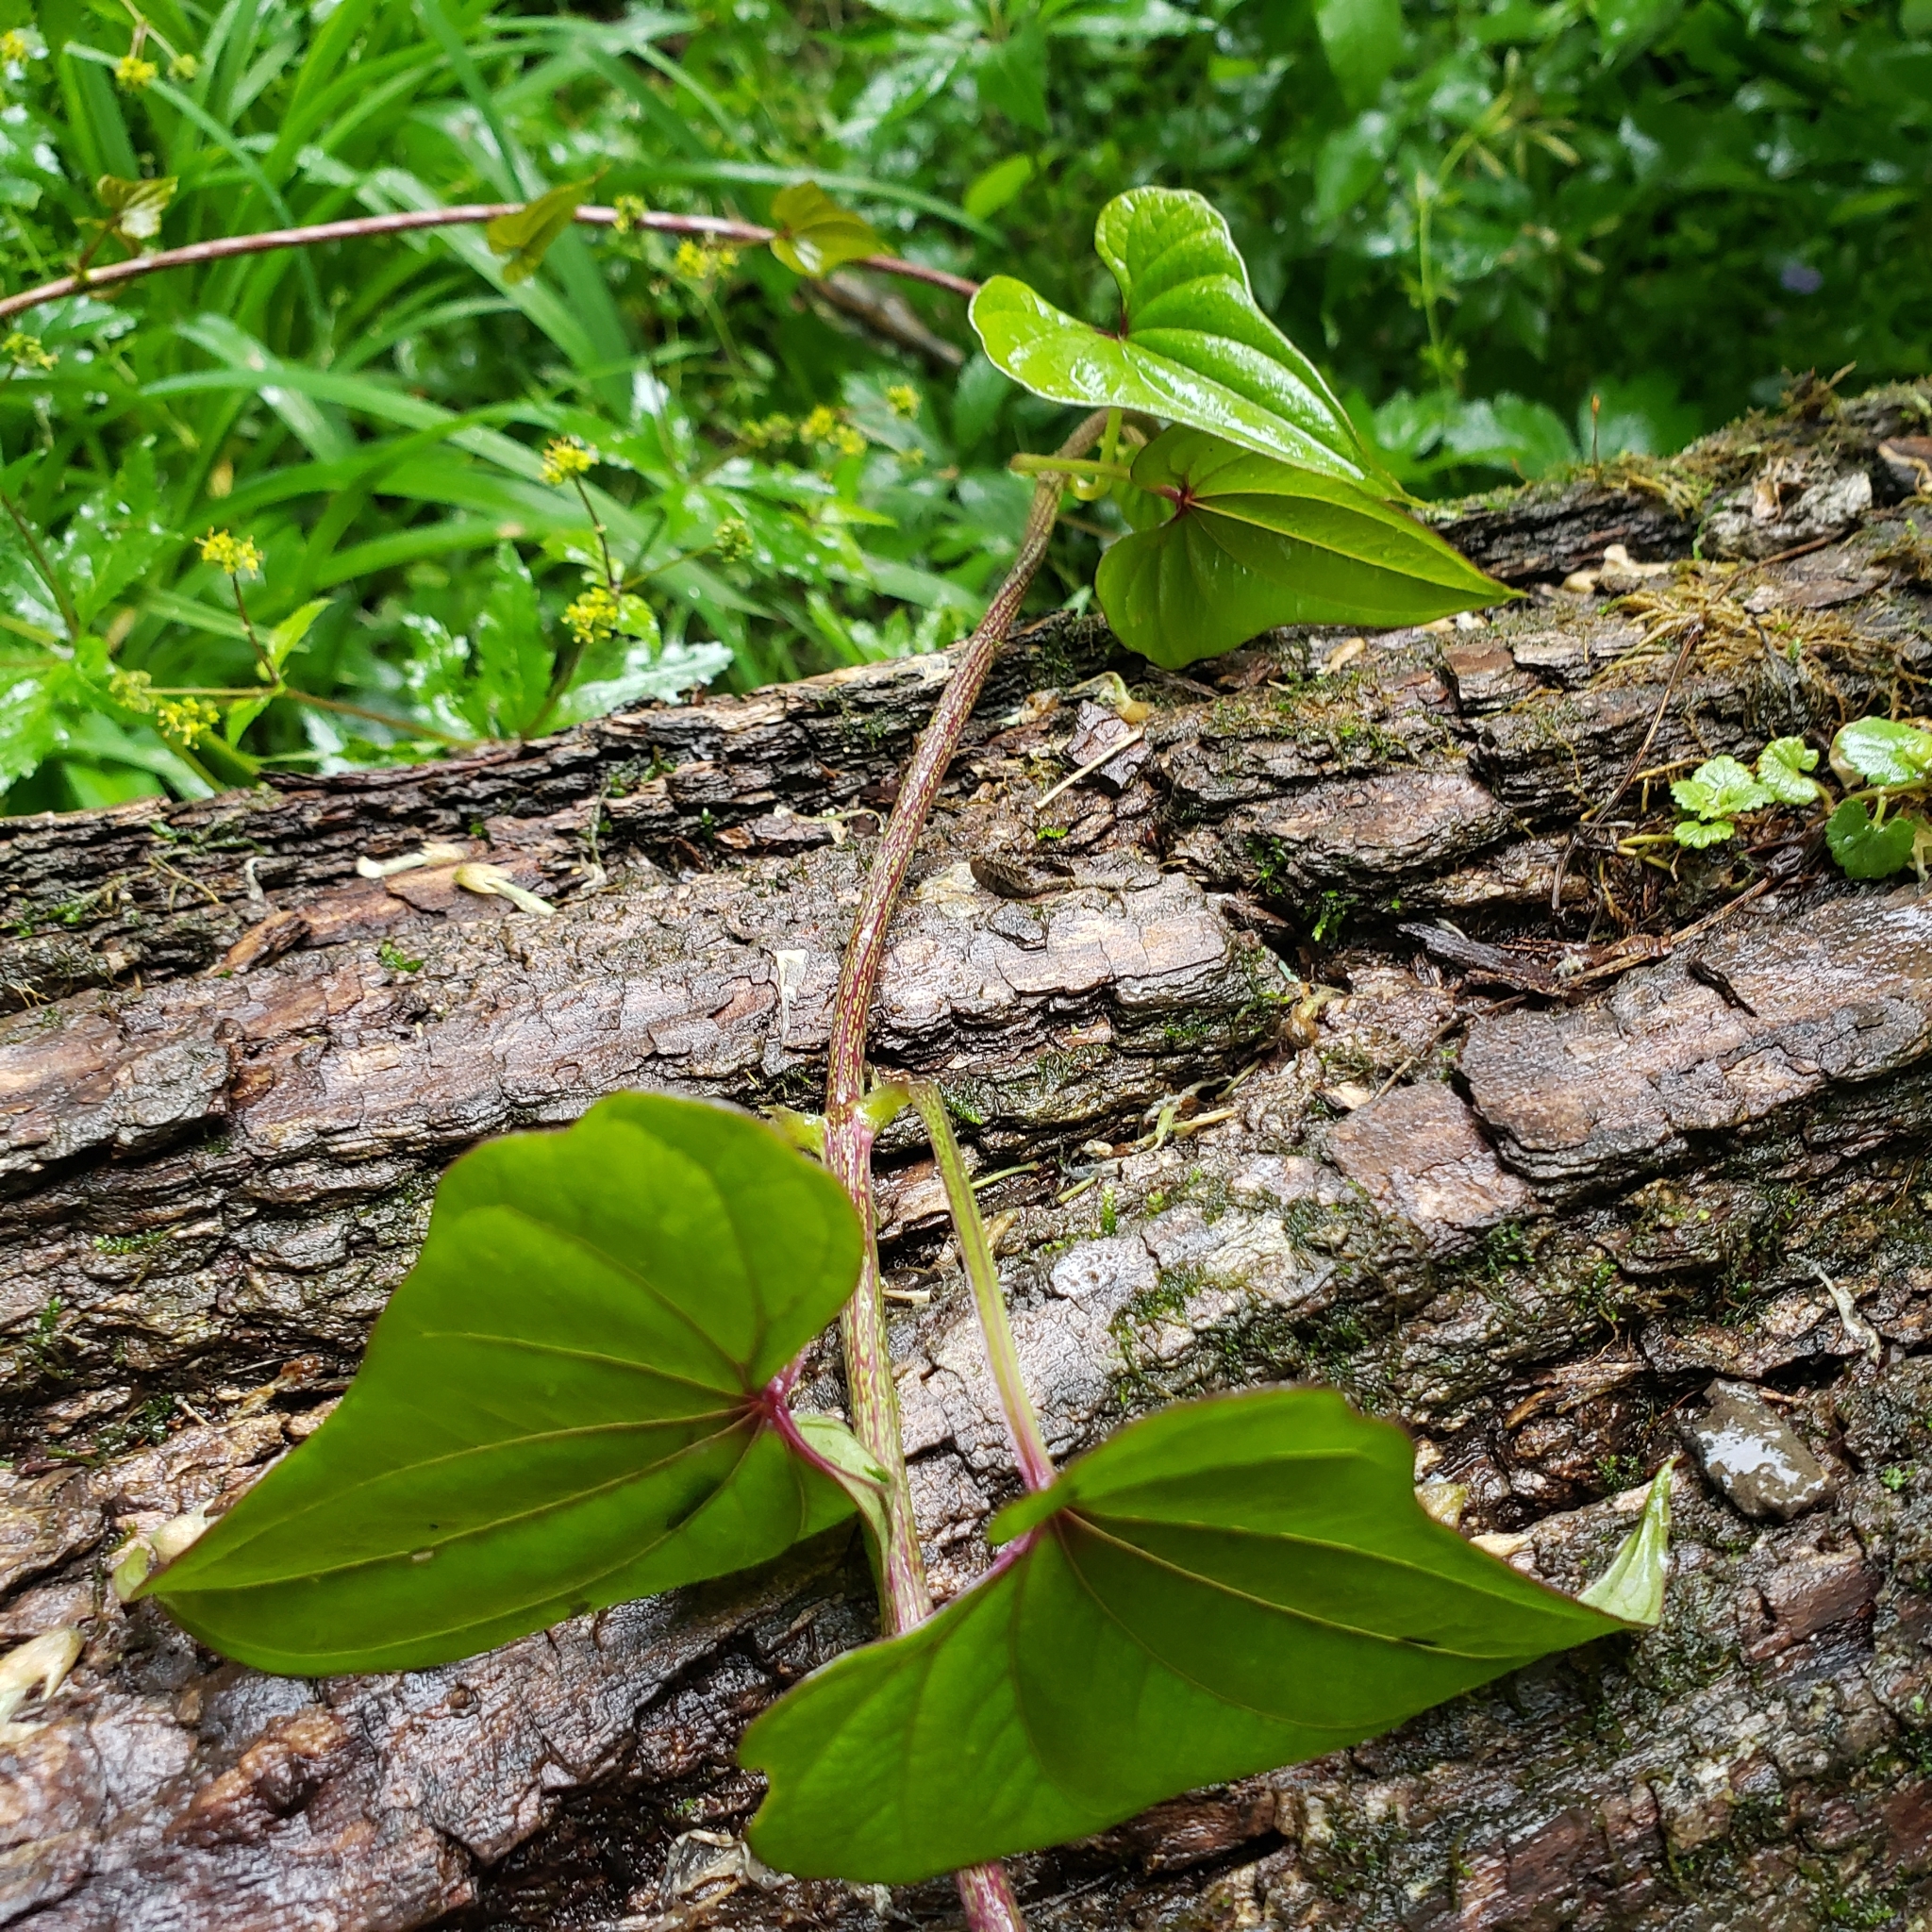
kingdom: Plantae
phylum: Tracheophyta
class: Liliopsida
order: Dioscoreales
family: Dioscoreaceae
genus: Dioscorea
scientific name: Dioscorea polystachya
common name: Chinese yam
